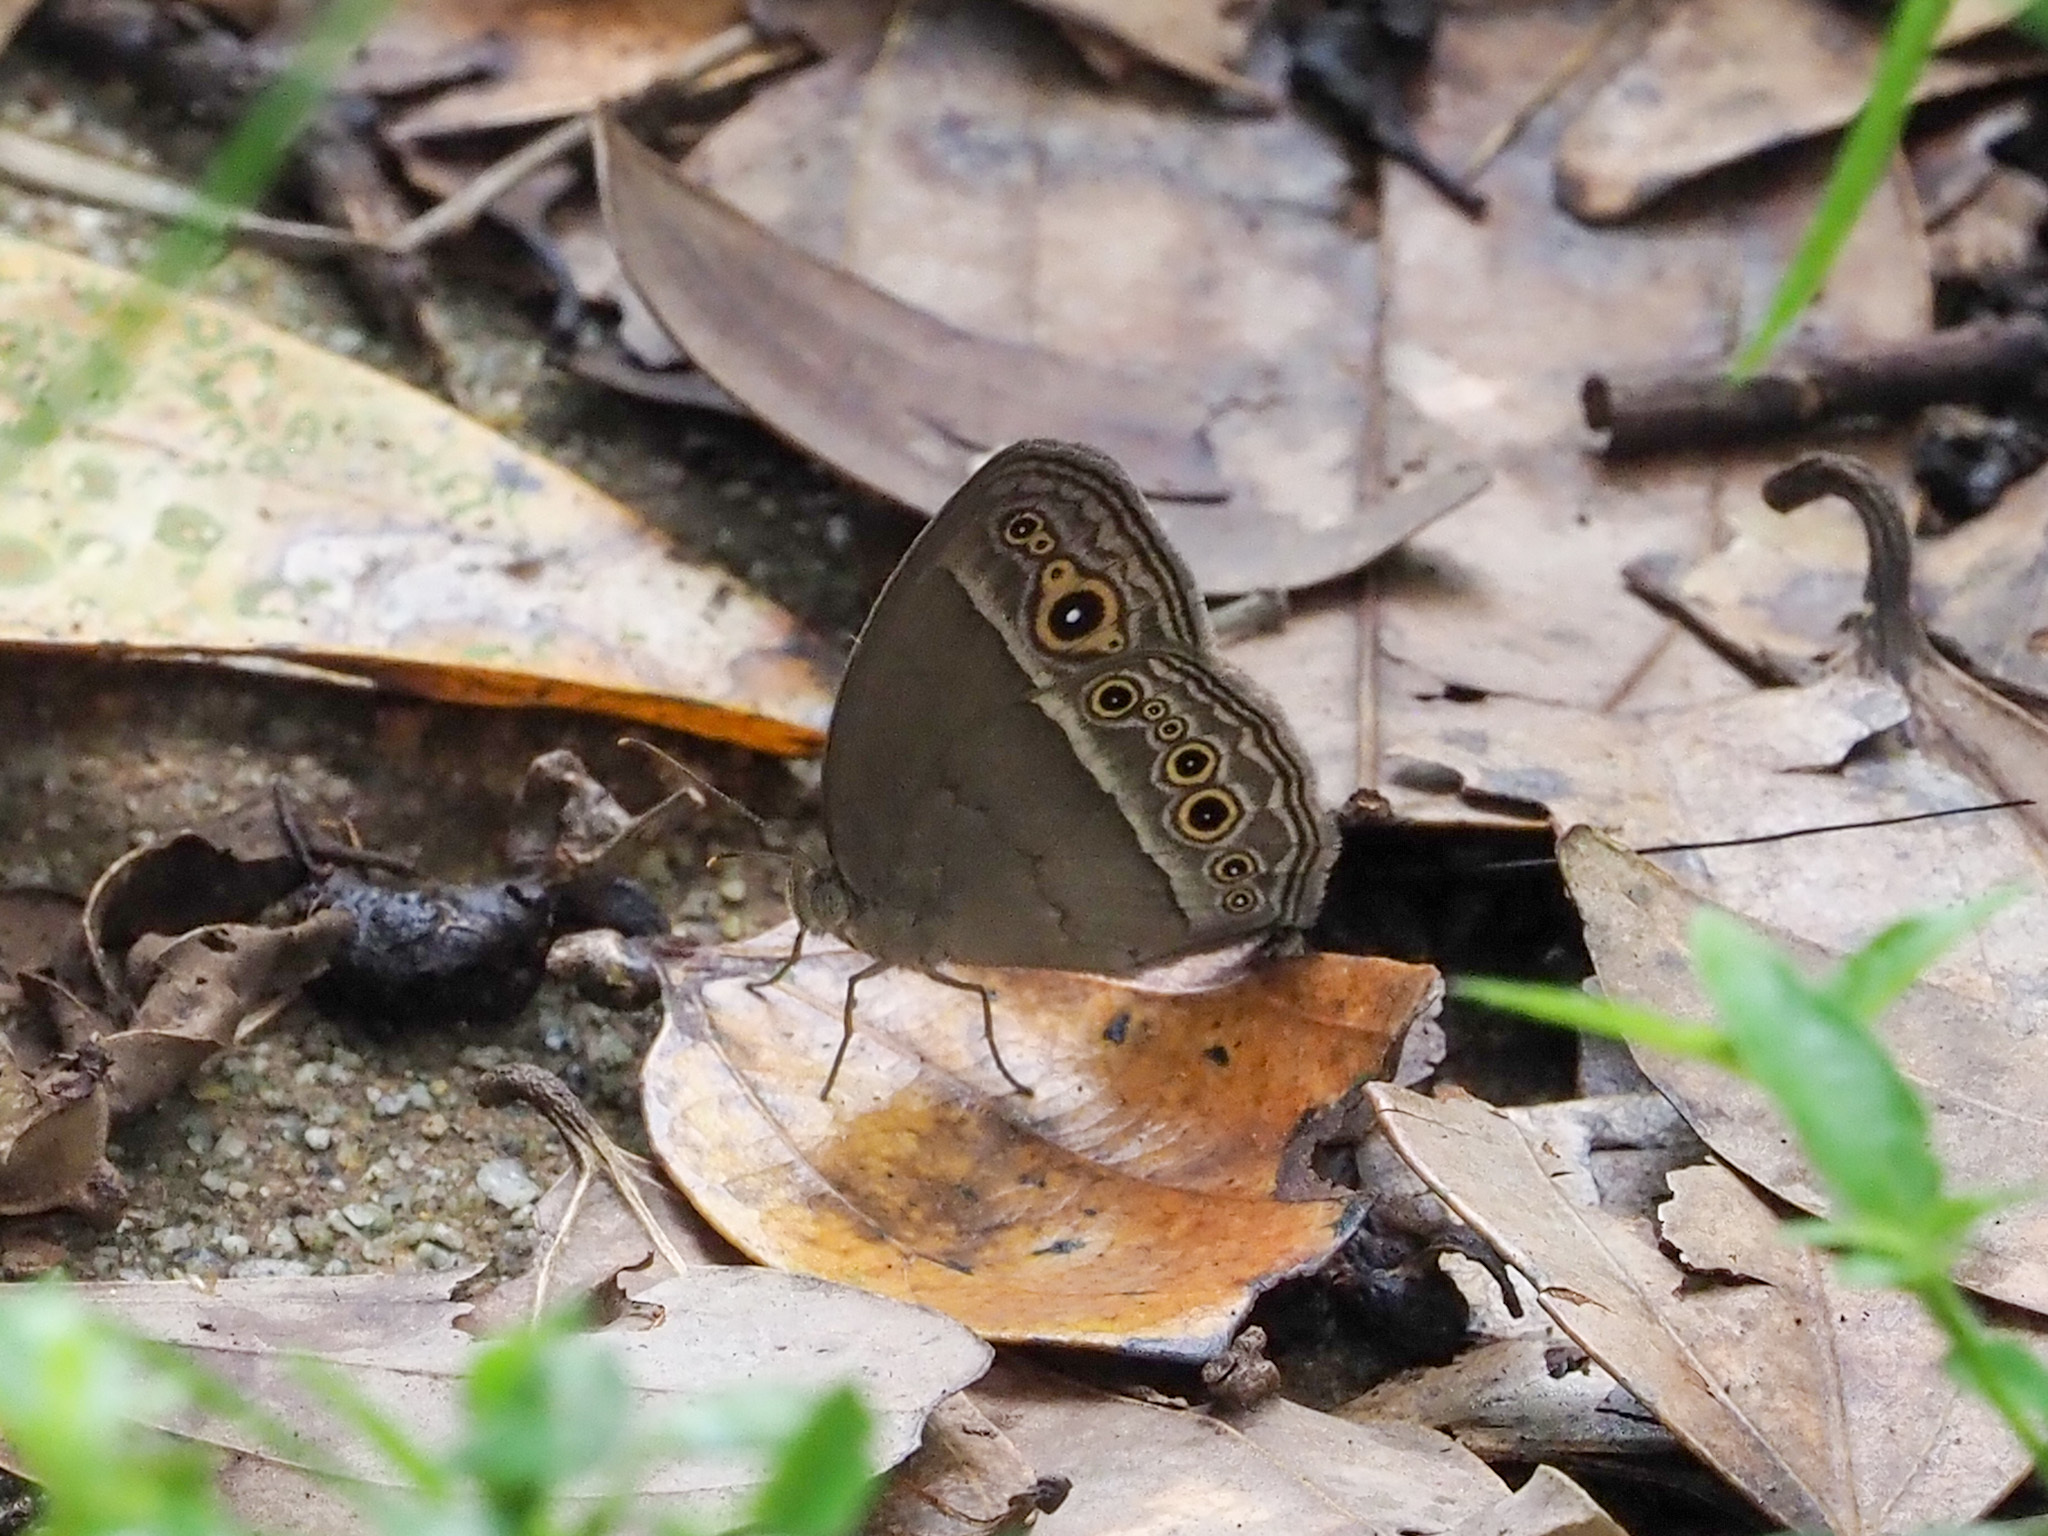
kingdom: Animalia
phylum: Arthropoda
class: Insecta
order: Lepidoptera
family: Nymphalidae
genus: Mycalesis
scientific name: Mycalesis perseoides
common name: Burmese bushbrown
